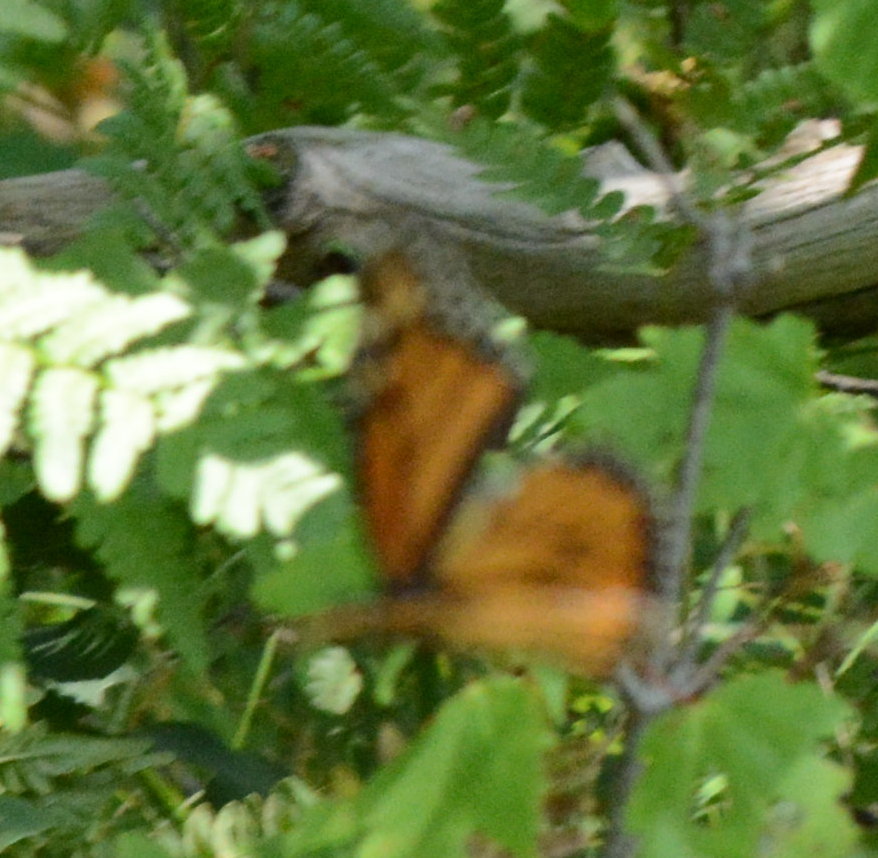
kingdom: Animalia
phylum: Arthropoda
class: Insecta
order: Lepidoptera
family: Nymphalidae
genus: Danaus
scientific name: Danaus plexippus
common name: Monarch
